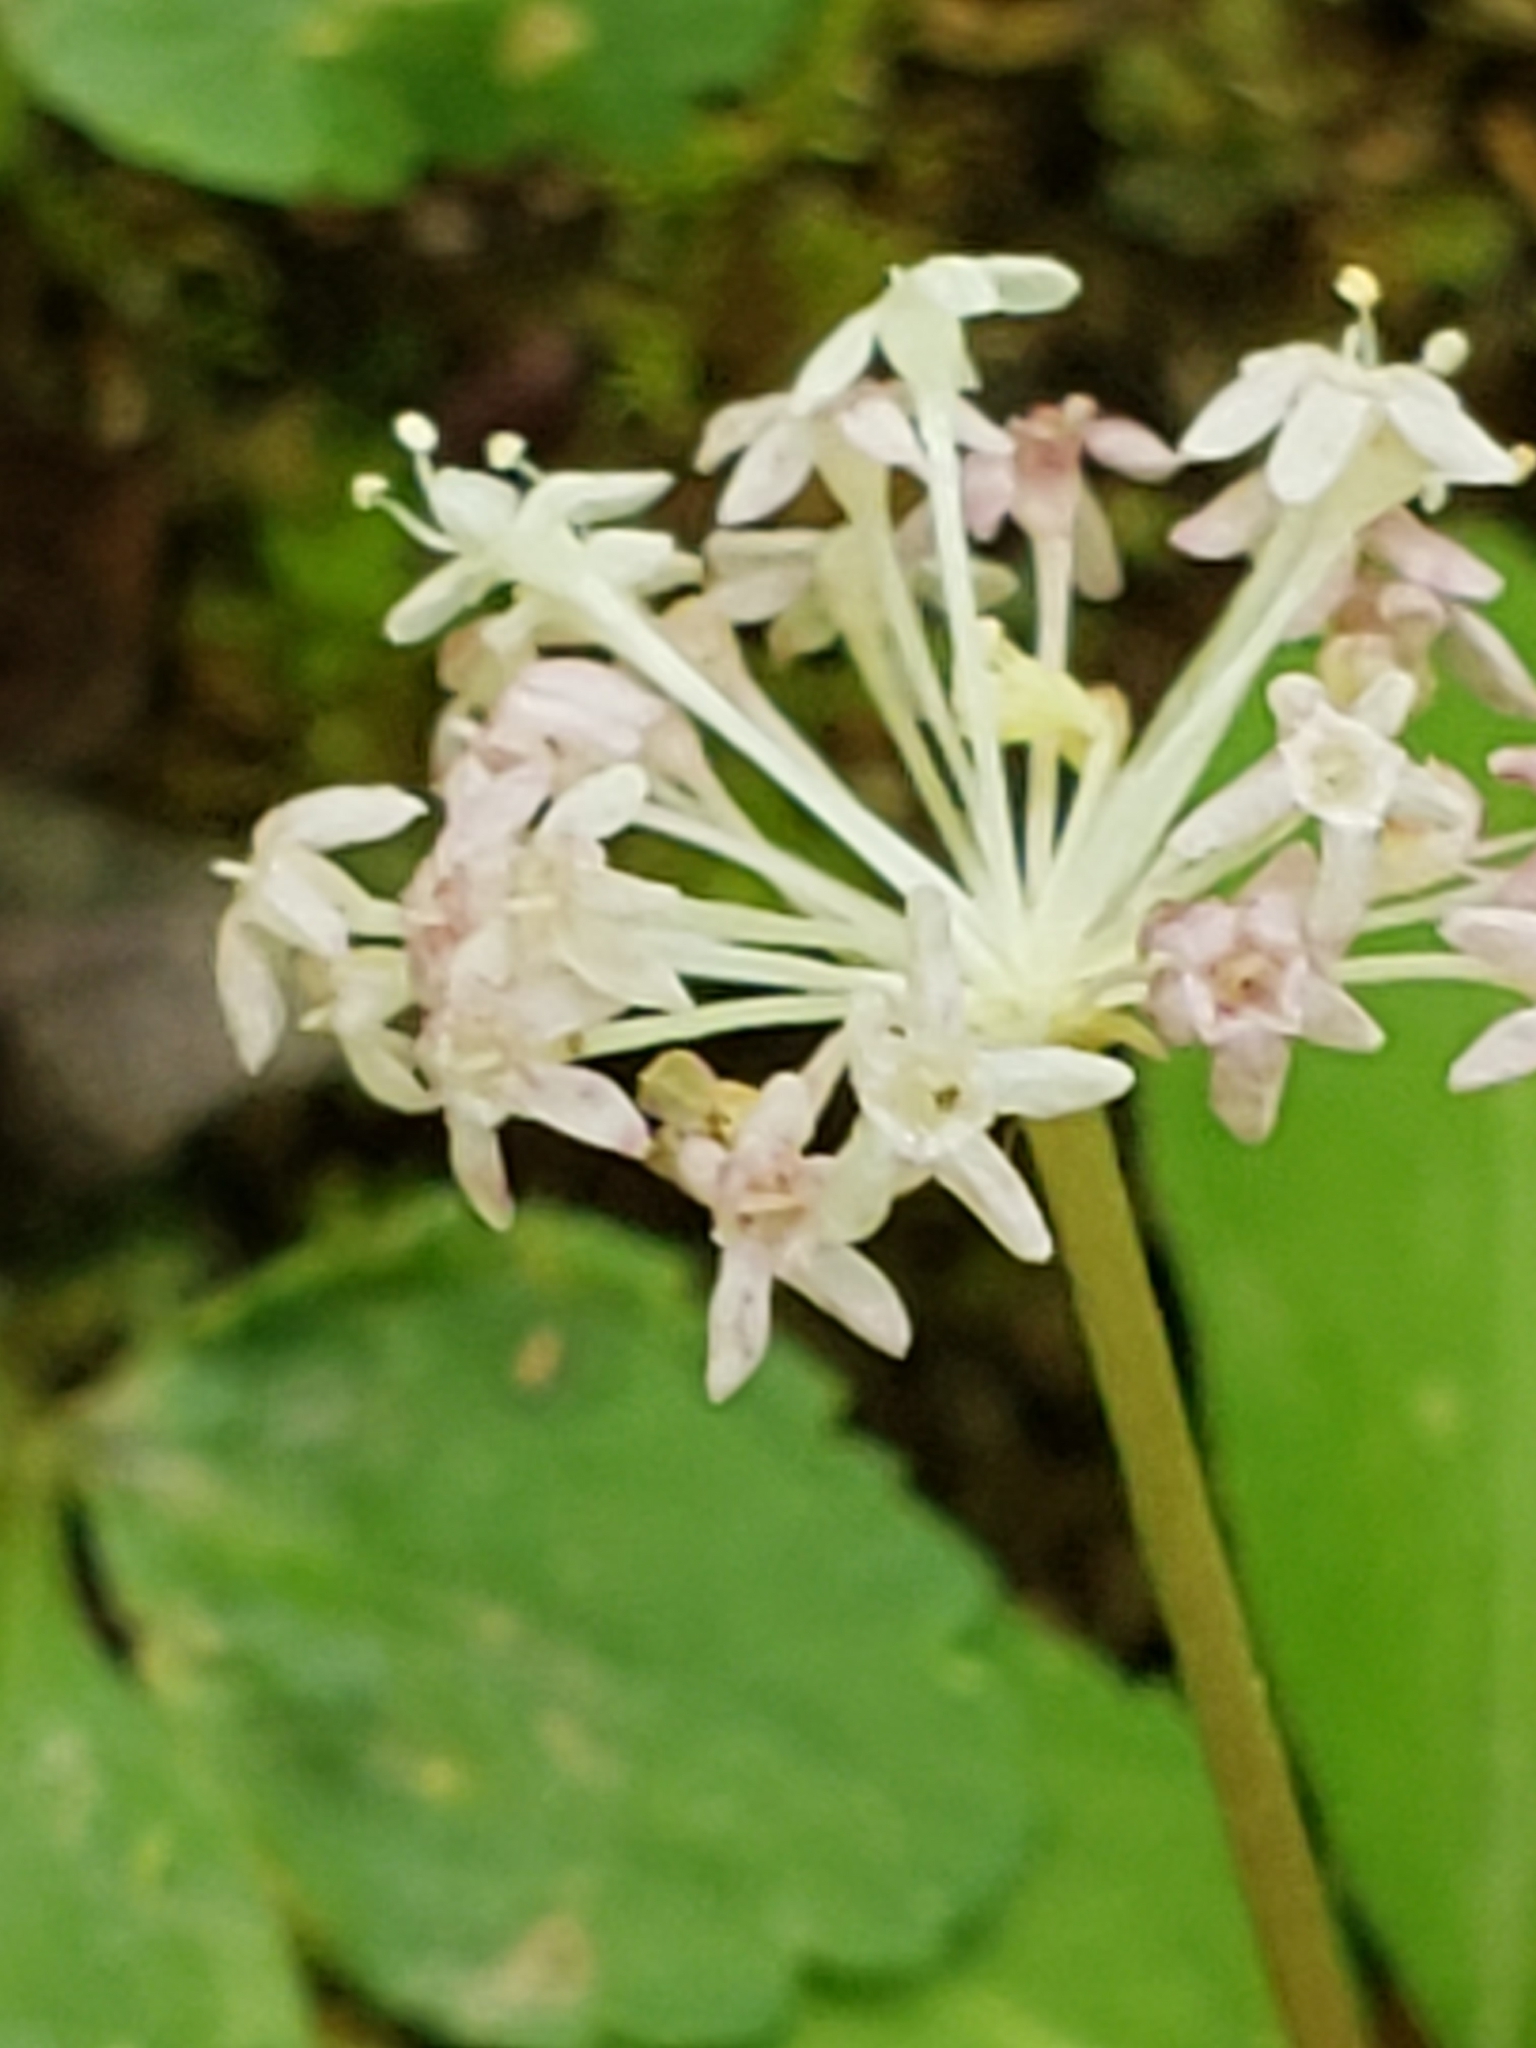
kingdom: Plantae
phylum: Tracheophyta
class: Magnoliopsida
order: Apiales
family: Araliaceae
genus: Panax
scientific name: Panax trifolius
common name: Dwarf ginseng
